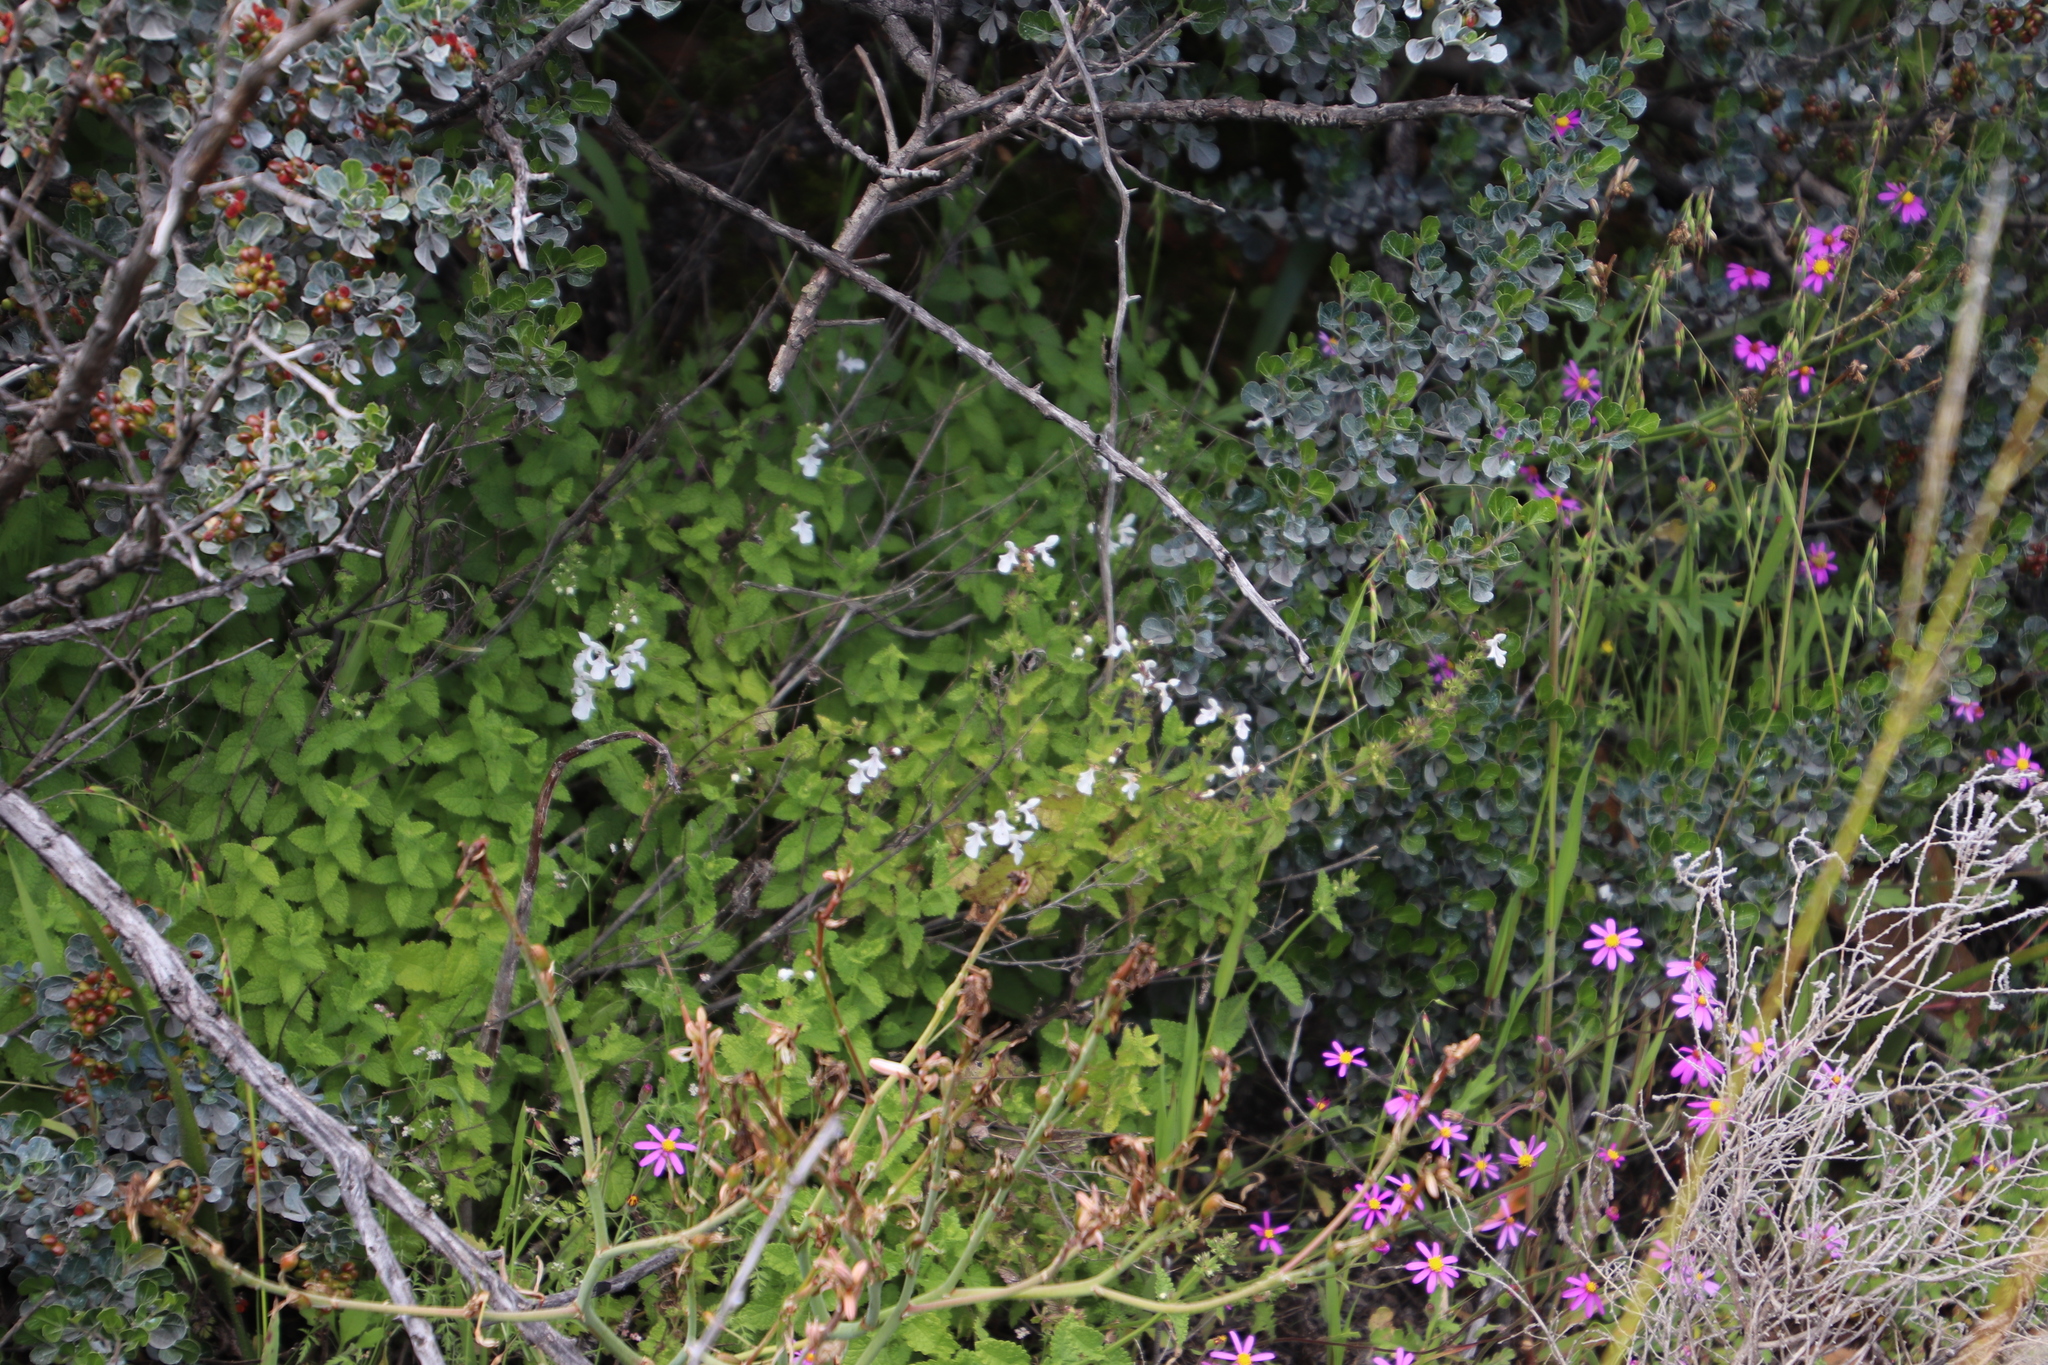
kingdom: Plantae
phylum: Tracheophyta
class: Magnoliopsida
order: Lamiales
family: Lamiaceae
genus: Stachys
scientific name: Stachys aethiopica
